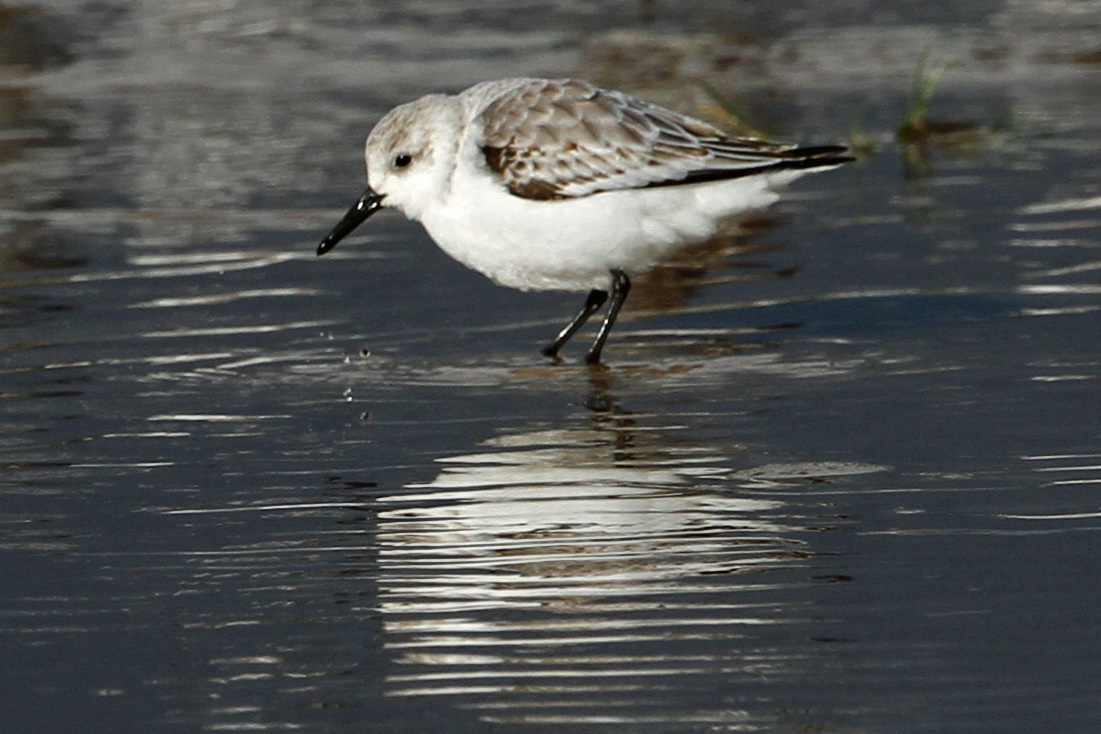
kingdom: Animalia
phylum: Chordata
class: Aves
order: Charadriiformes
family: Scolopacidae
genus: Calidris
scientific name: Calidris alba
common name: Sanderling
